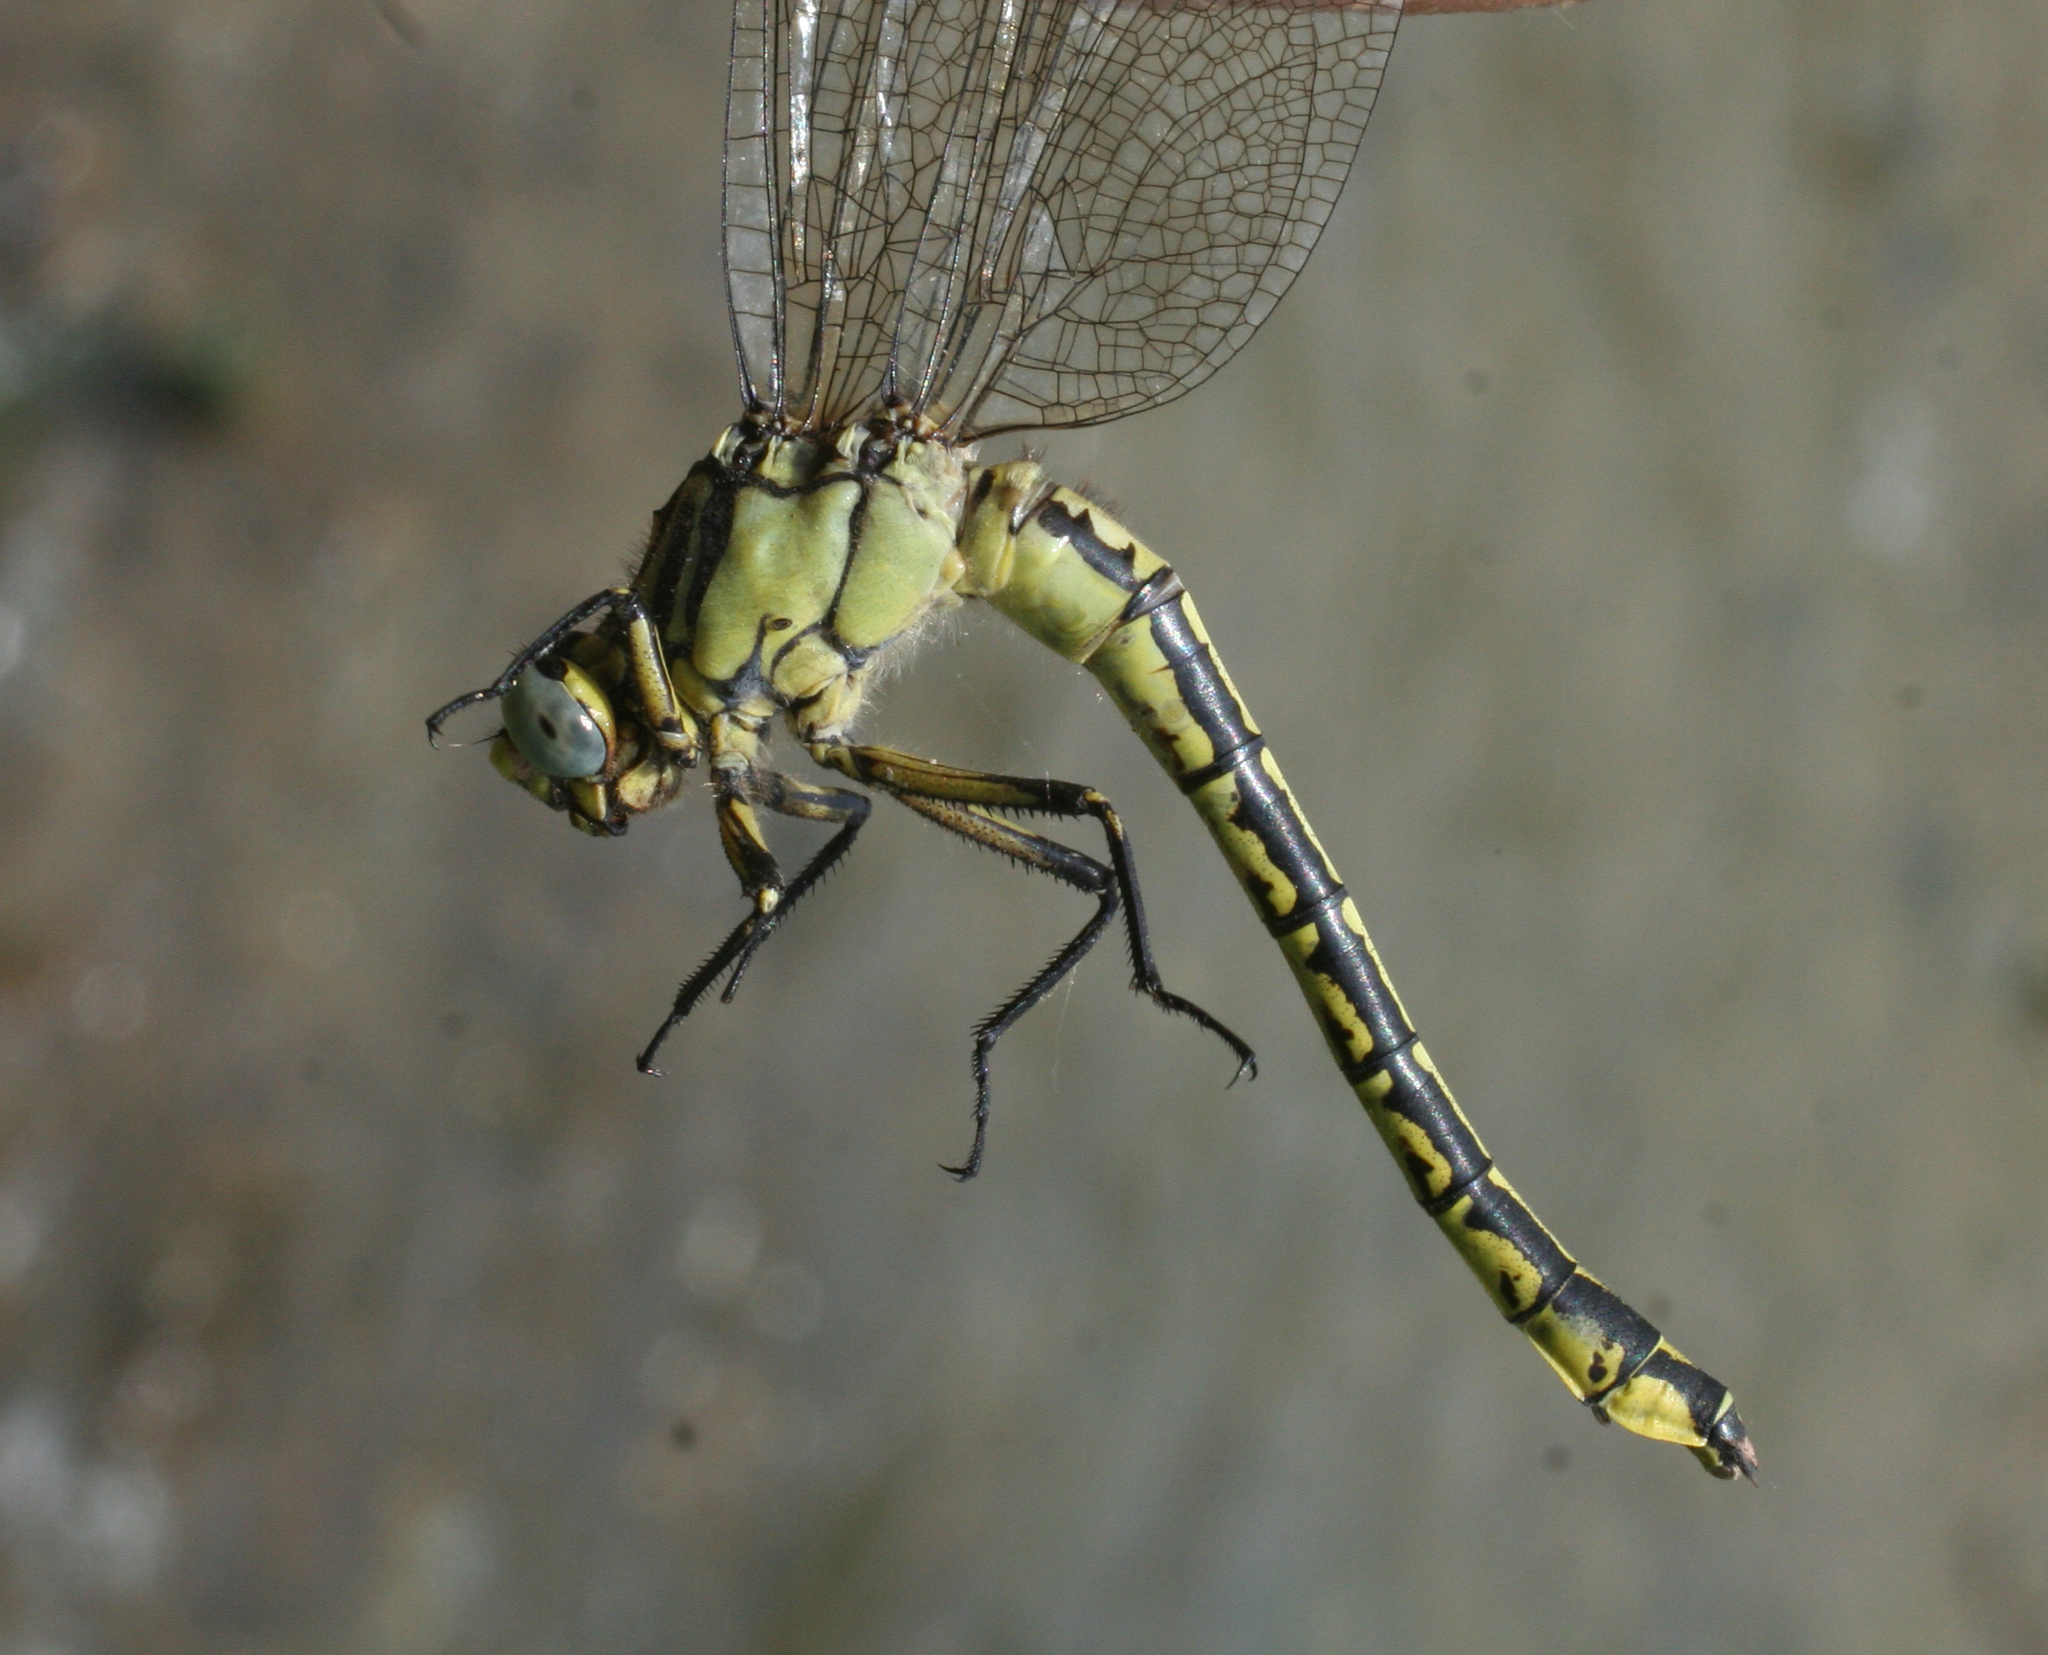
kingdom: Animalia
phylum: Arthropoda
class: Insecta
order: Odonata
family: Gomphidae
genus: Gomphus
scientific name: Gomphus schneiderii
